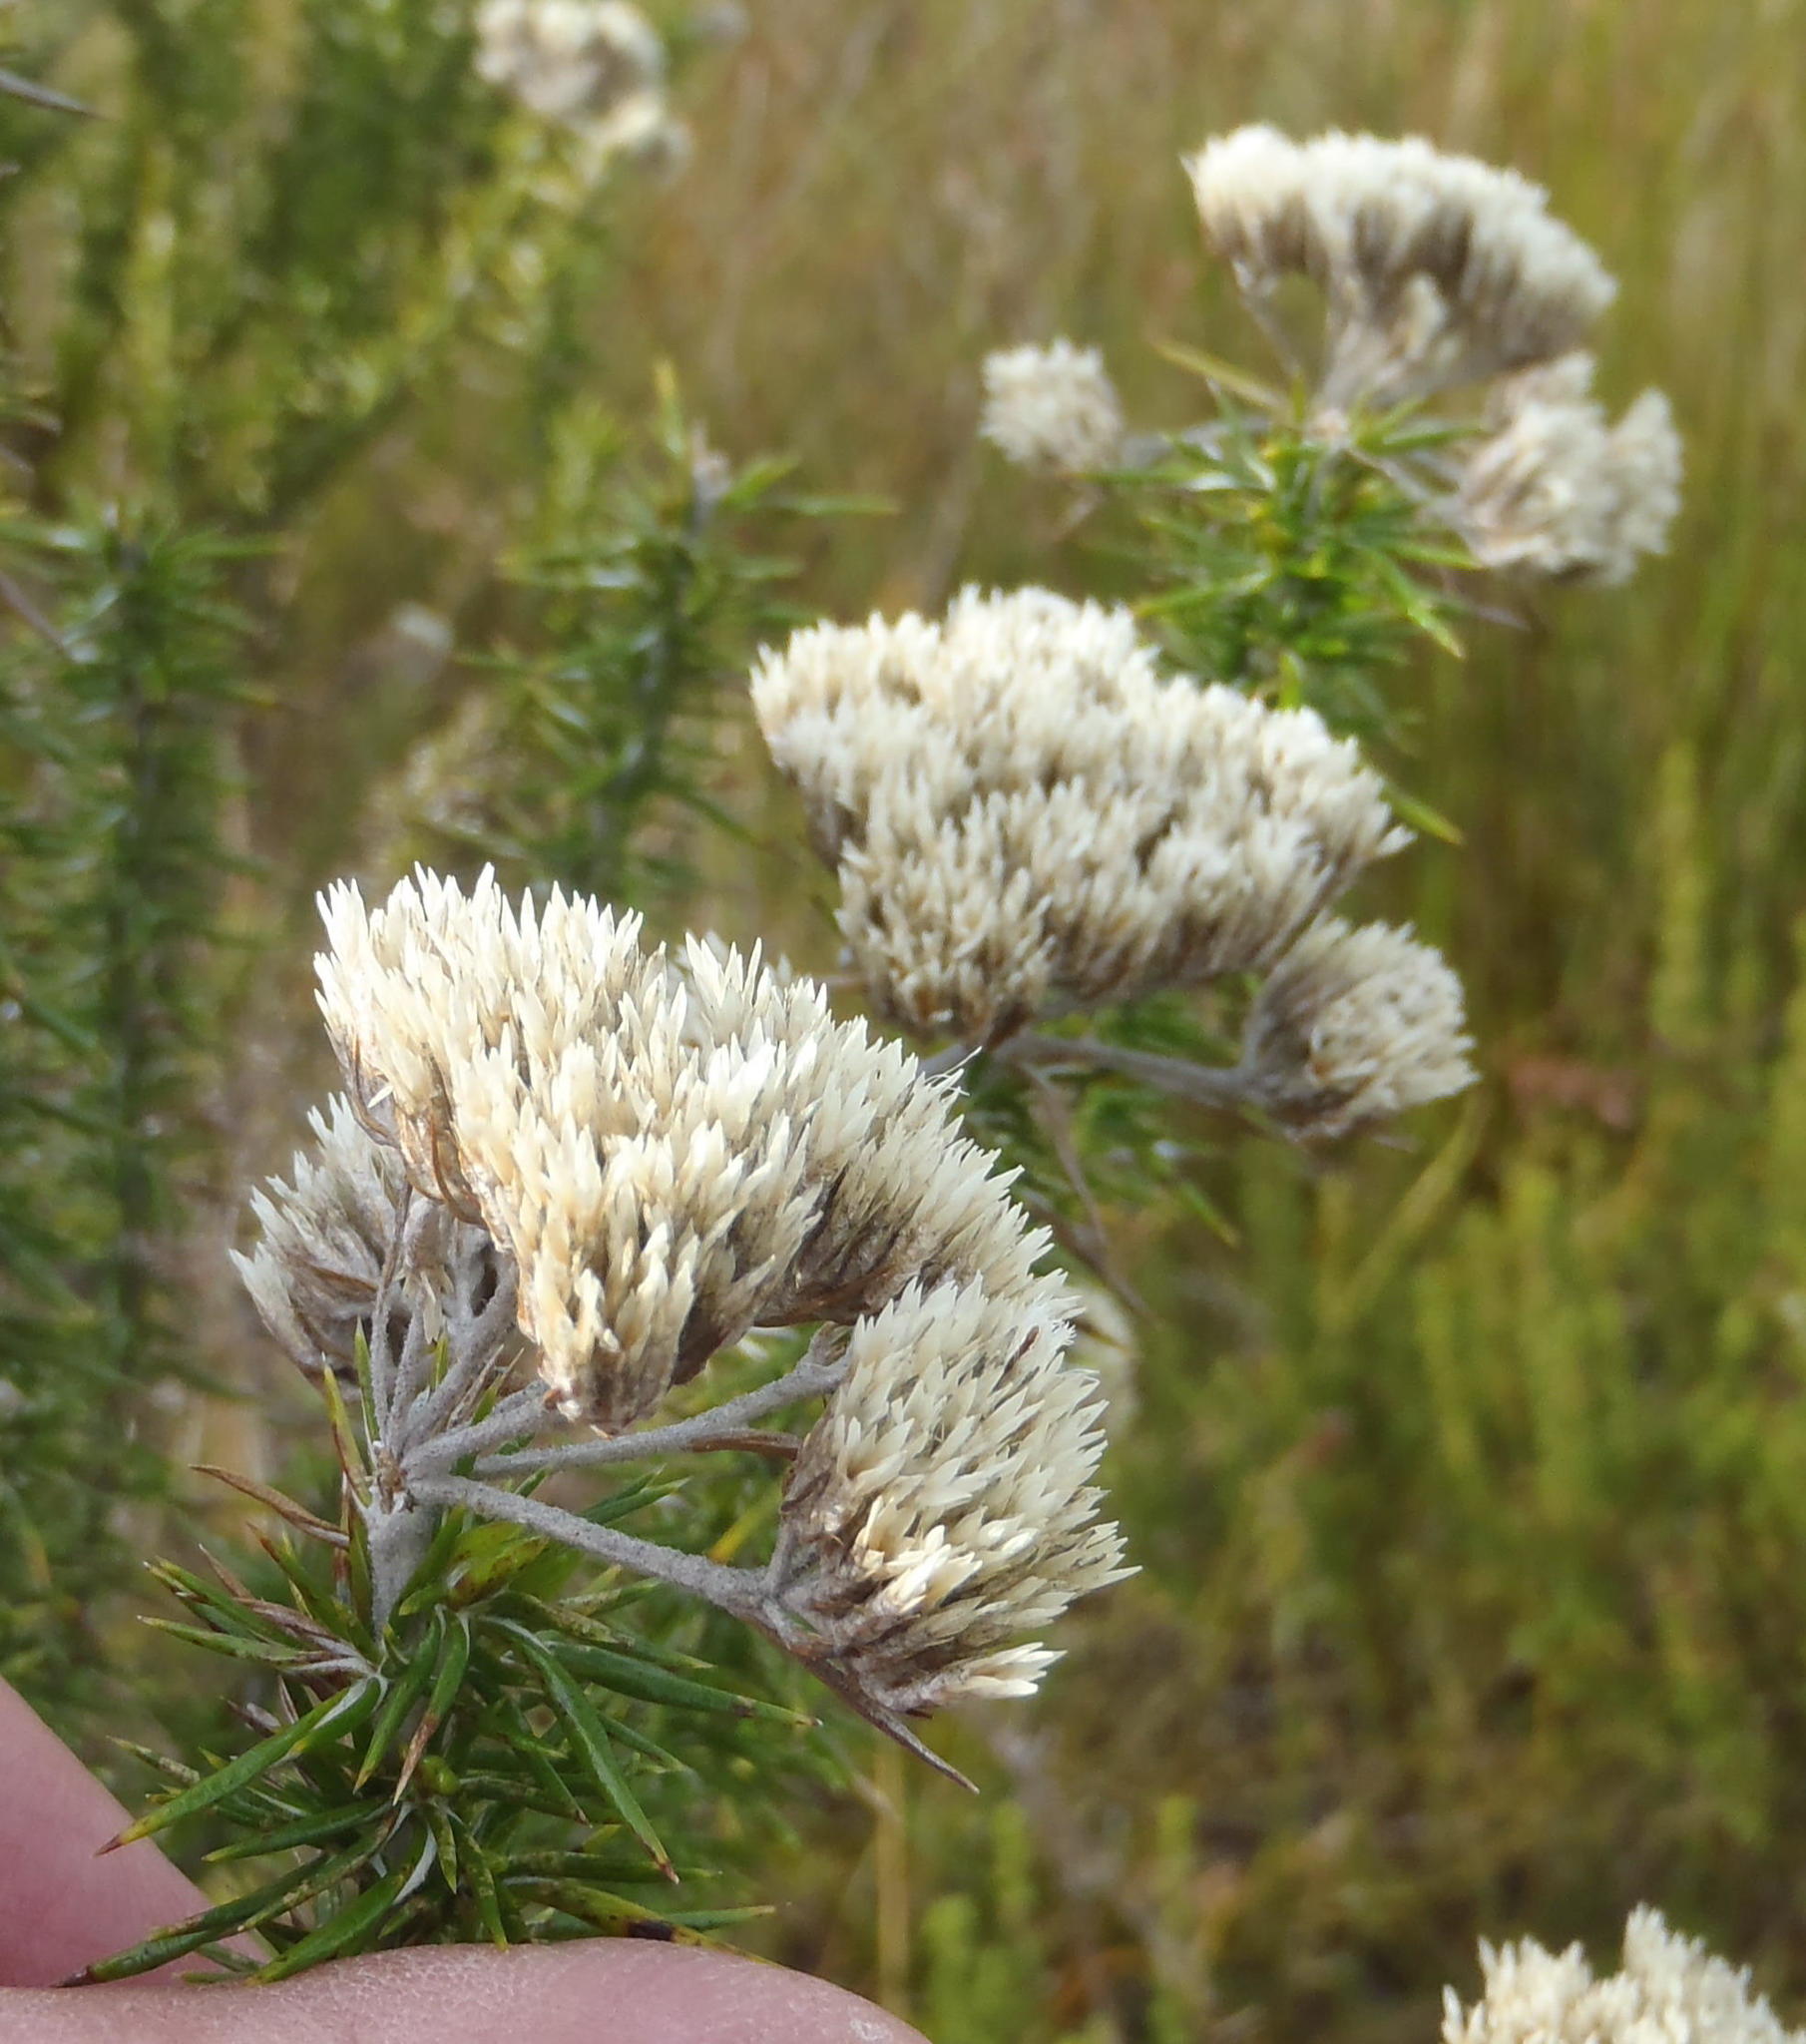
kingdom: Plantae
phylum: Tracheophyta
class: Magnoliopsida
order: Asterales
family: Asteraceae
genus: Metalasia
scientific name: Metalasia acuta
